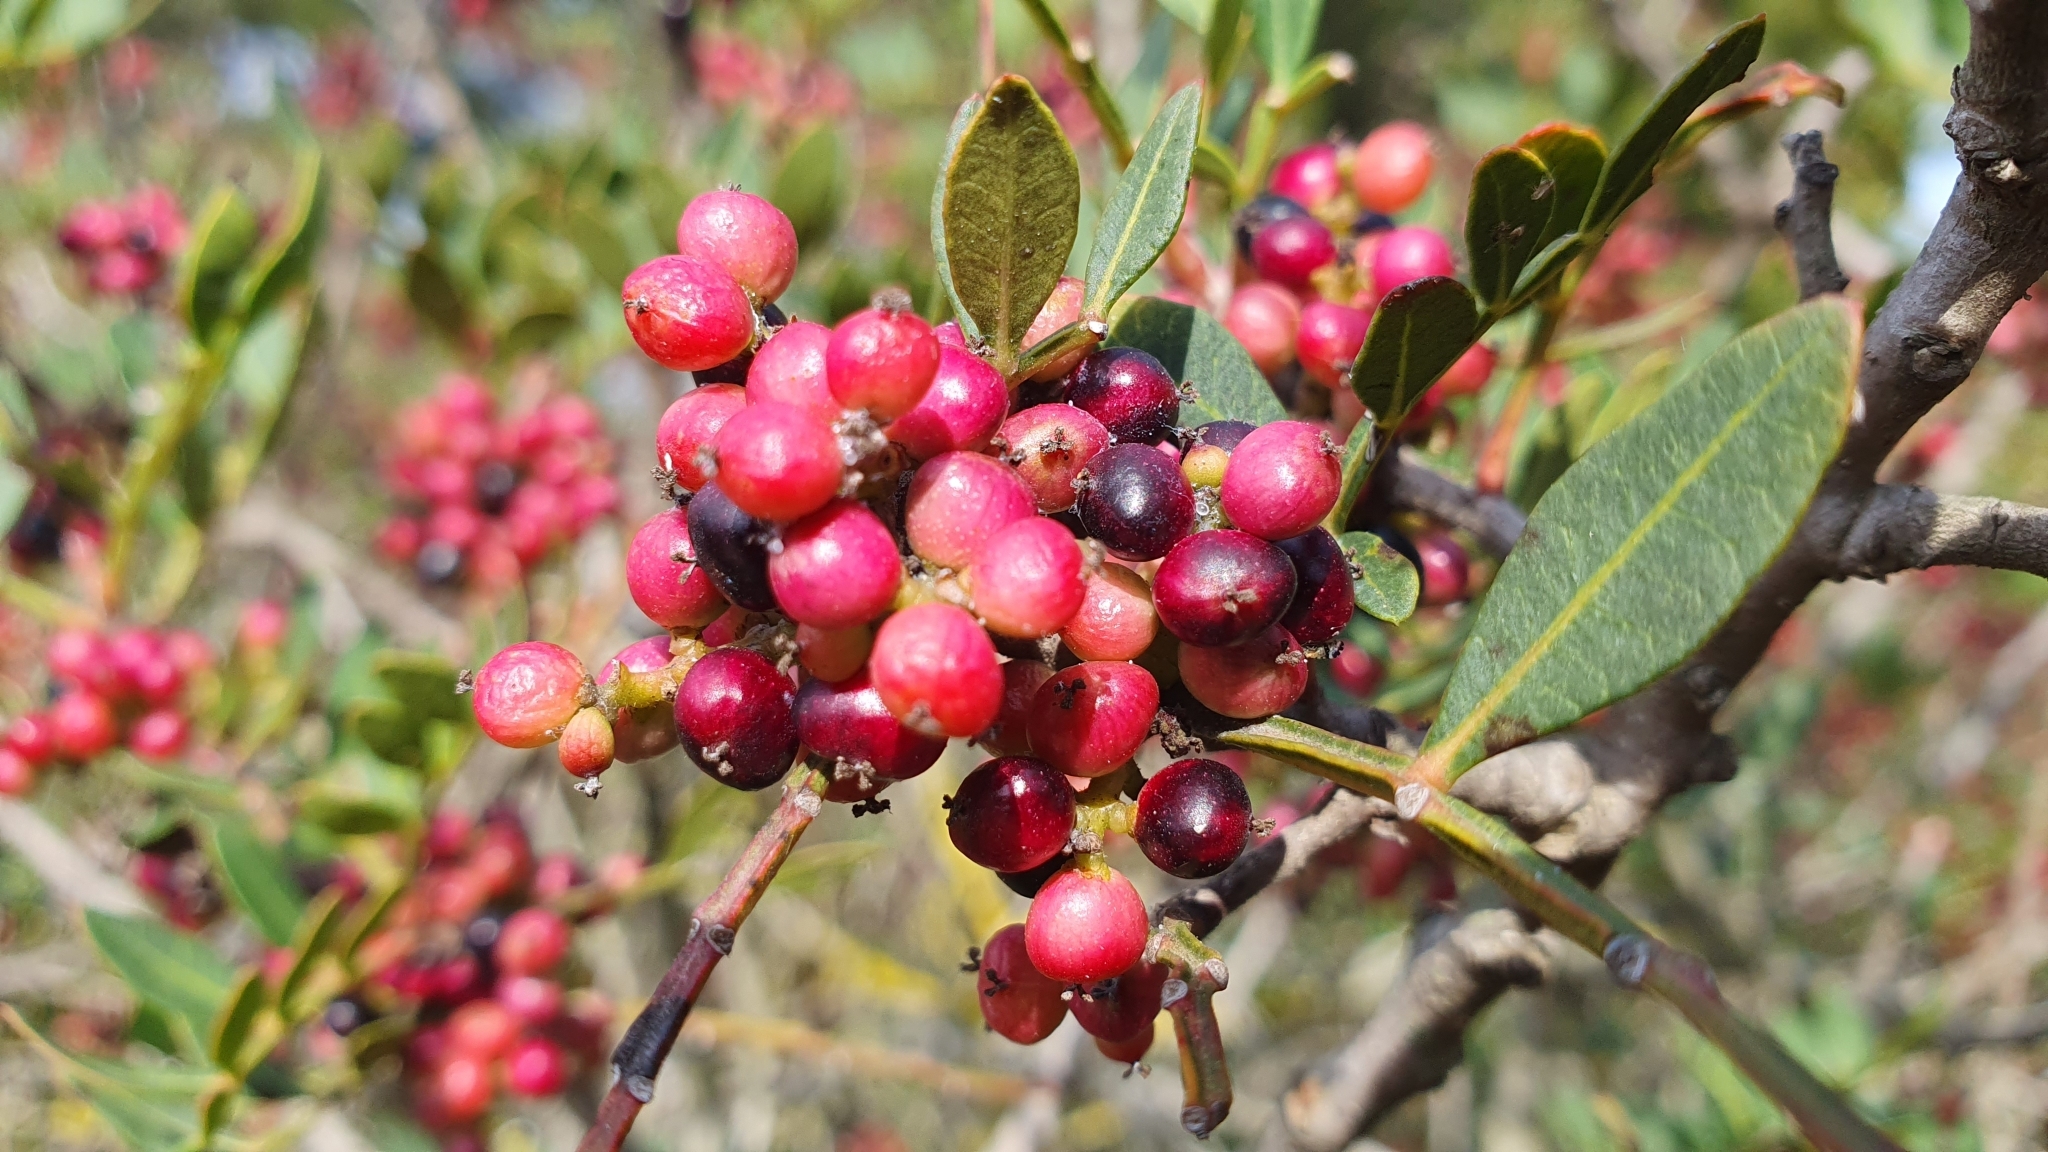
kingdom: Plantae
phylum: Tracheophyta
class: Magnoliopsida
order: Sapindales
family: Anacardiaceae
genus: Pistacia
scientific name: Pistacia lentiscus
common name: Lentisk
